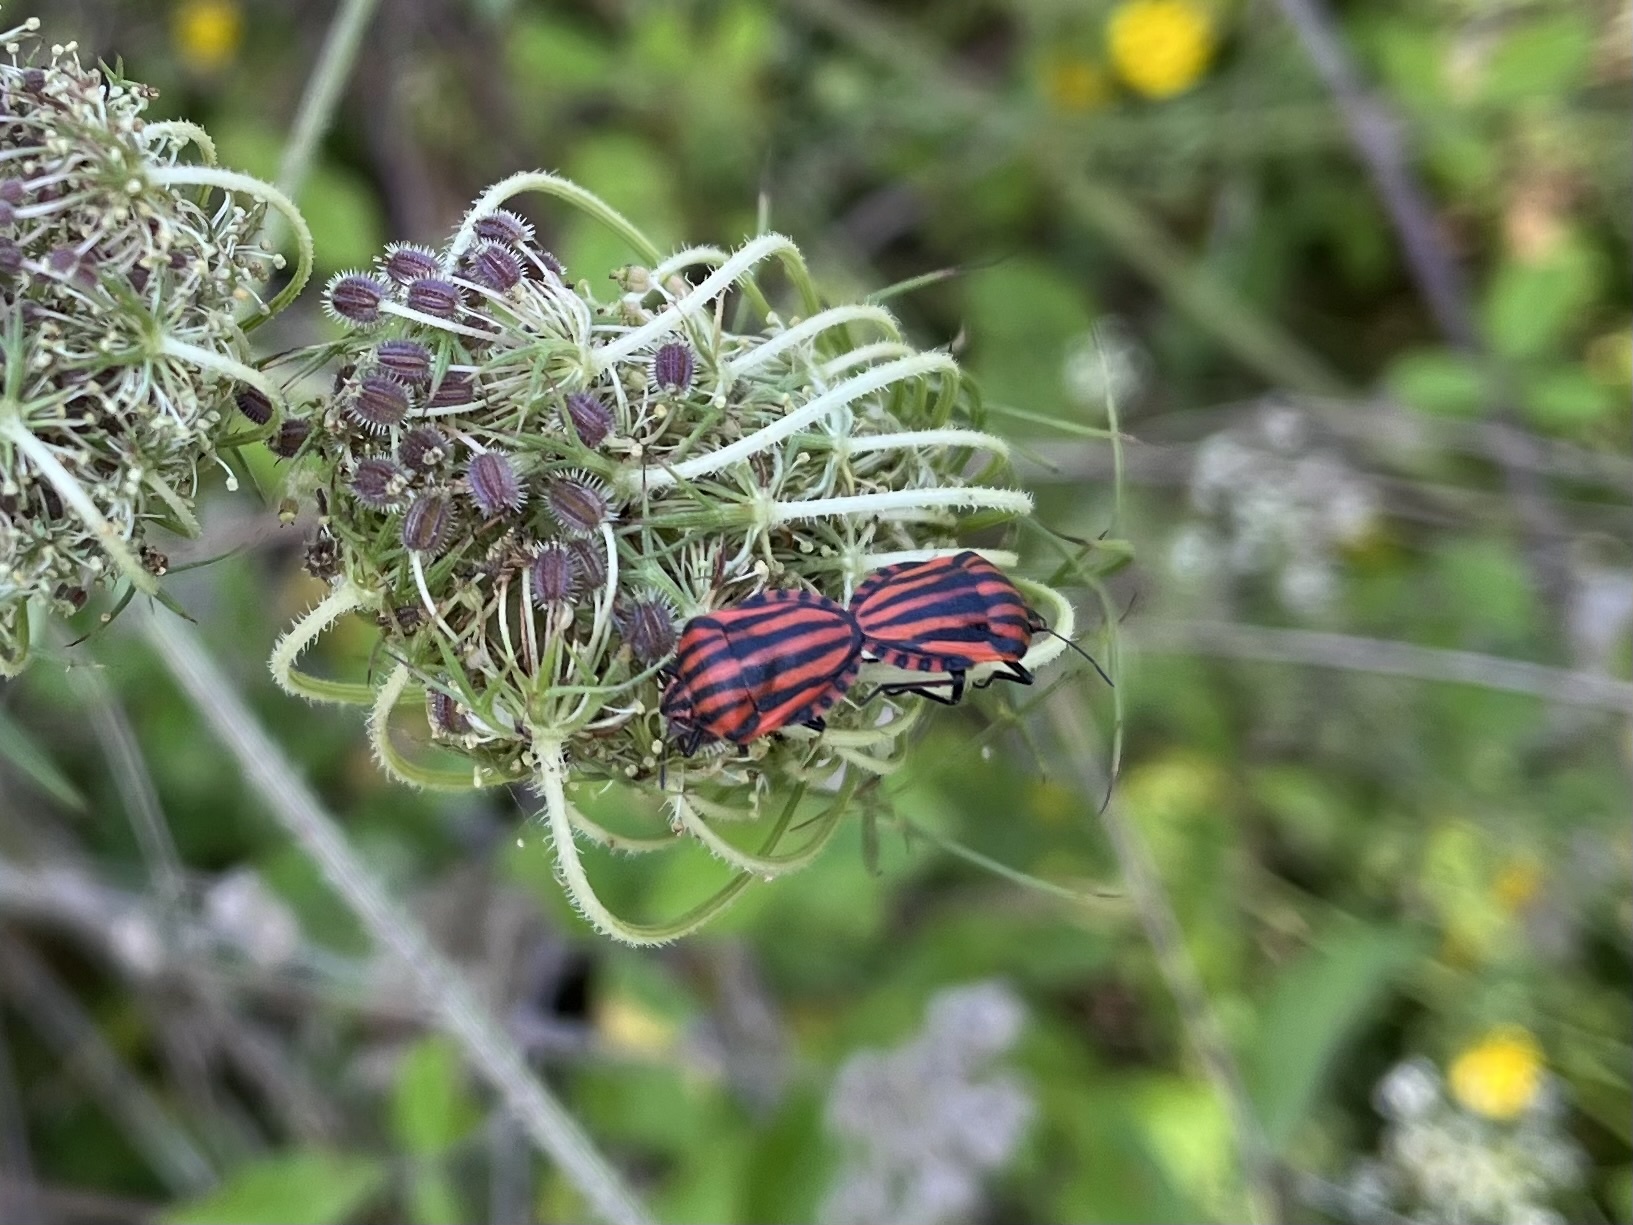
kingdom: Animalia
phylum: Arthropoda
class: Insecta
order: Hemiptera
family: Pentatomidae
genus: Graphosoma
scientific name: Graphosoma italicum
